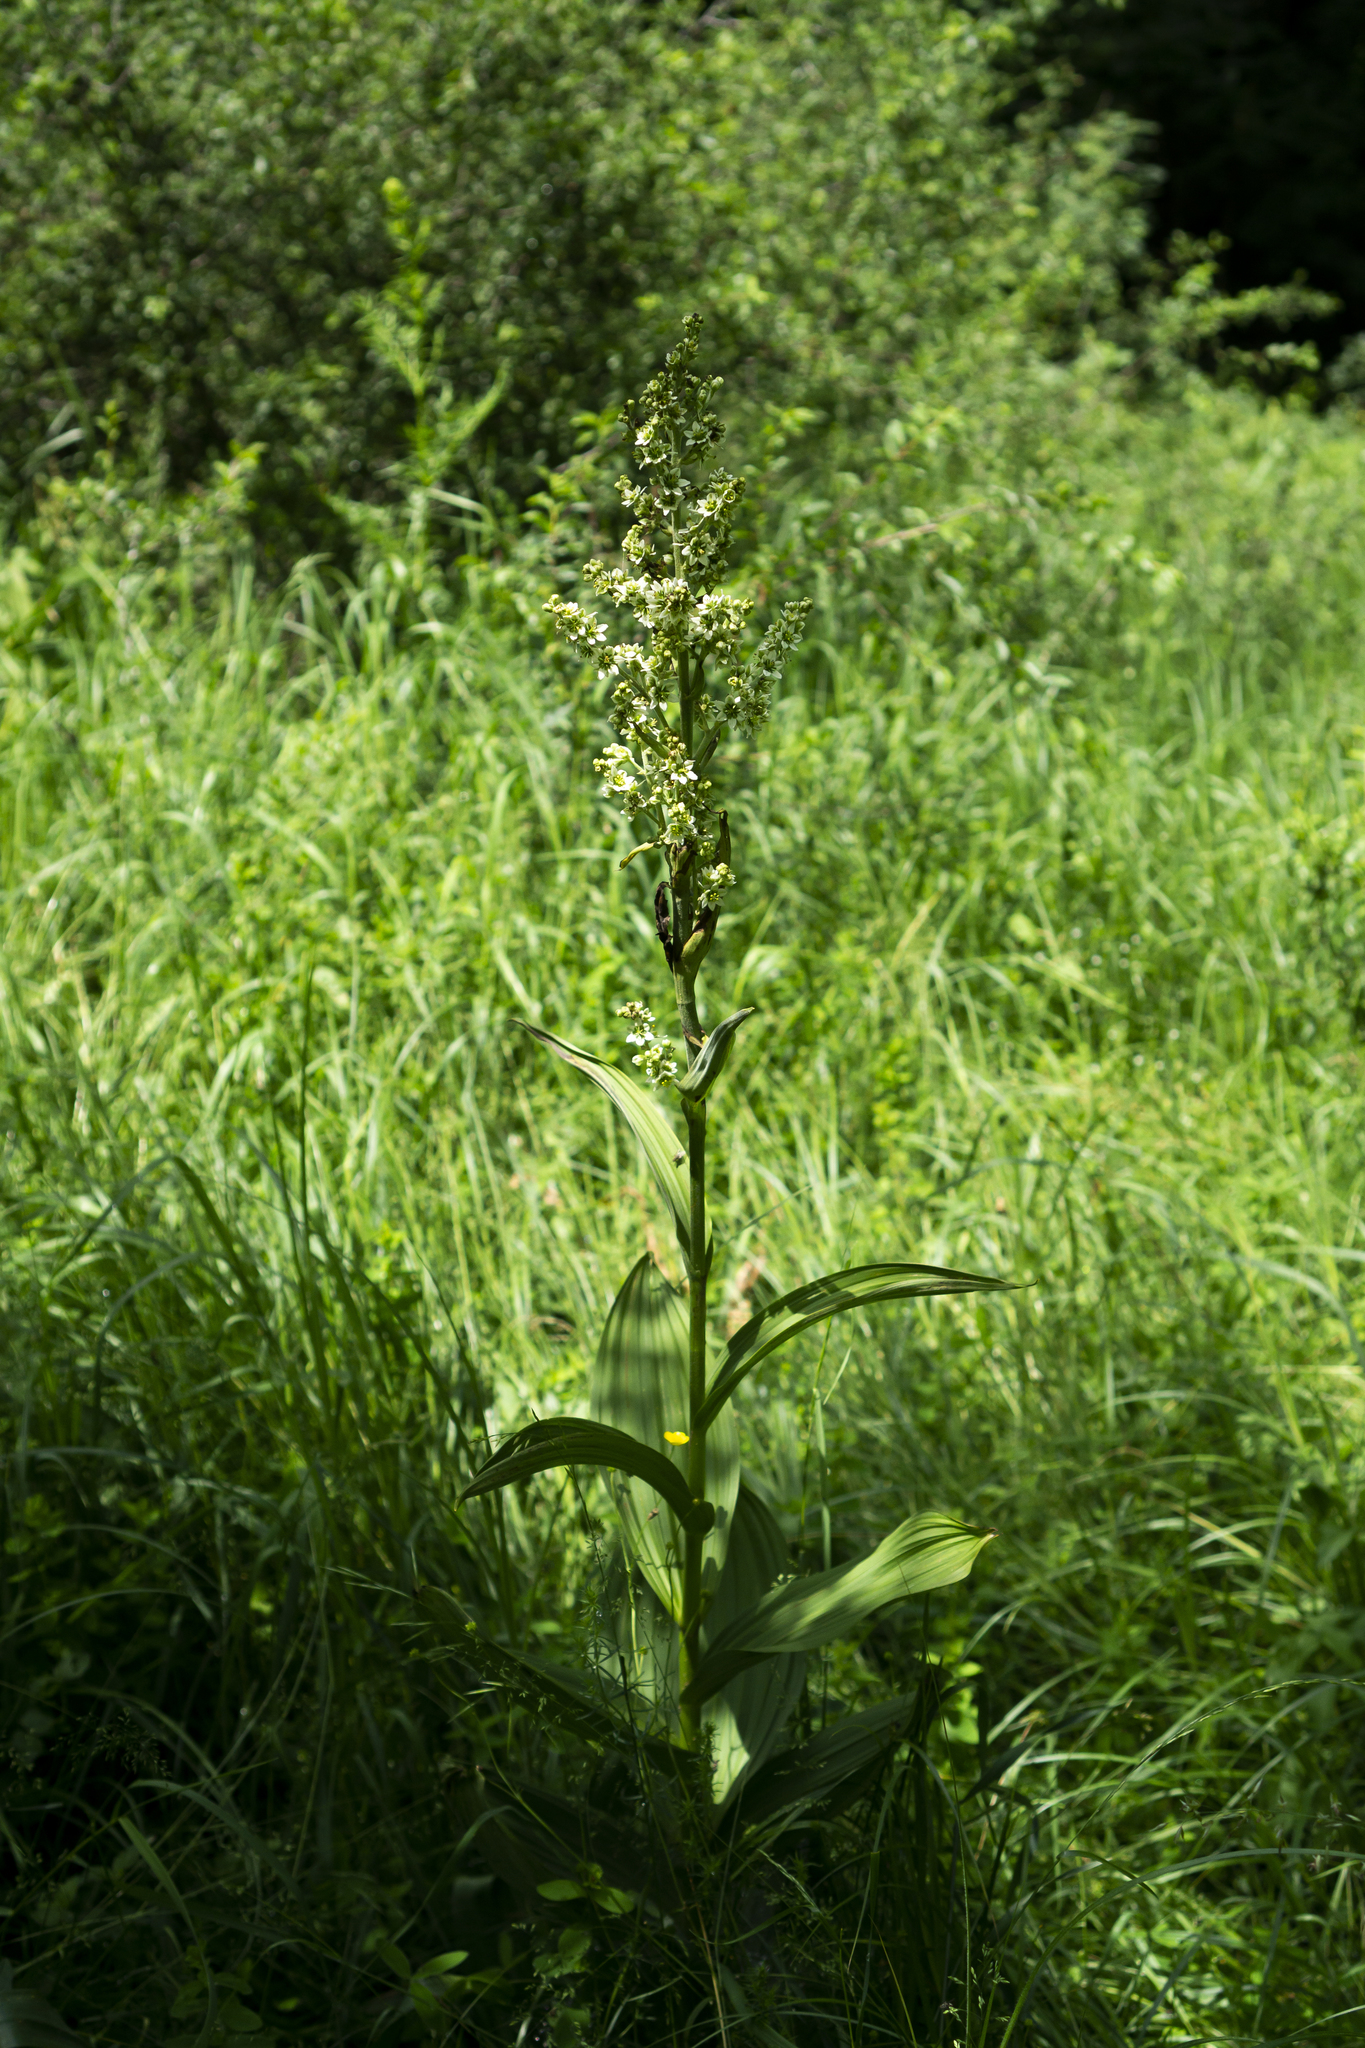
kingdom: Plantae
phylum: Tracheophyta
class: Liliopsida
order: Liliales
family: Melanthiaceae
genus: Veratrum
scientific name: Veratrum album
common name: White veratrum
